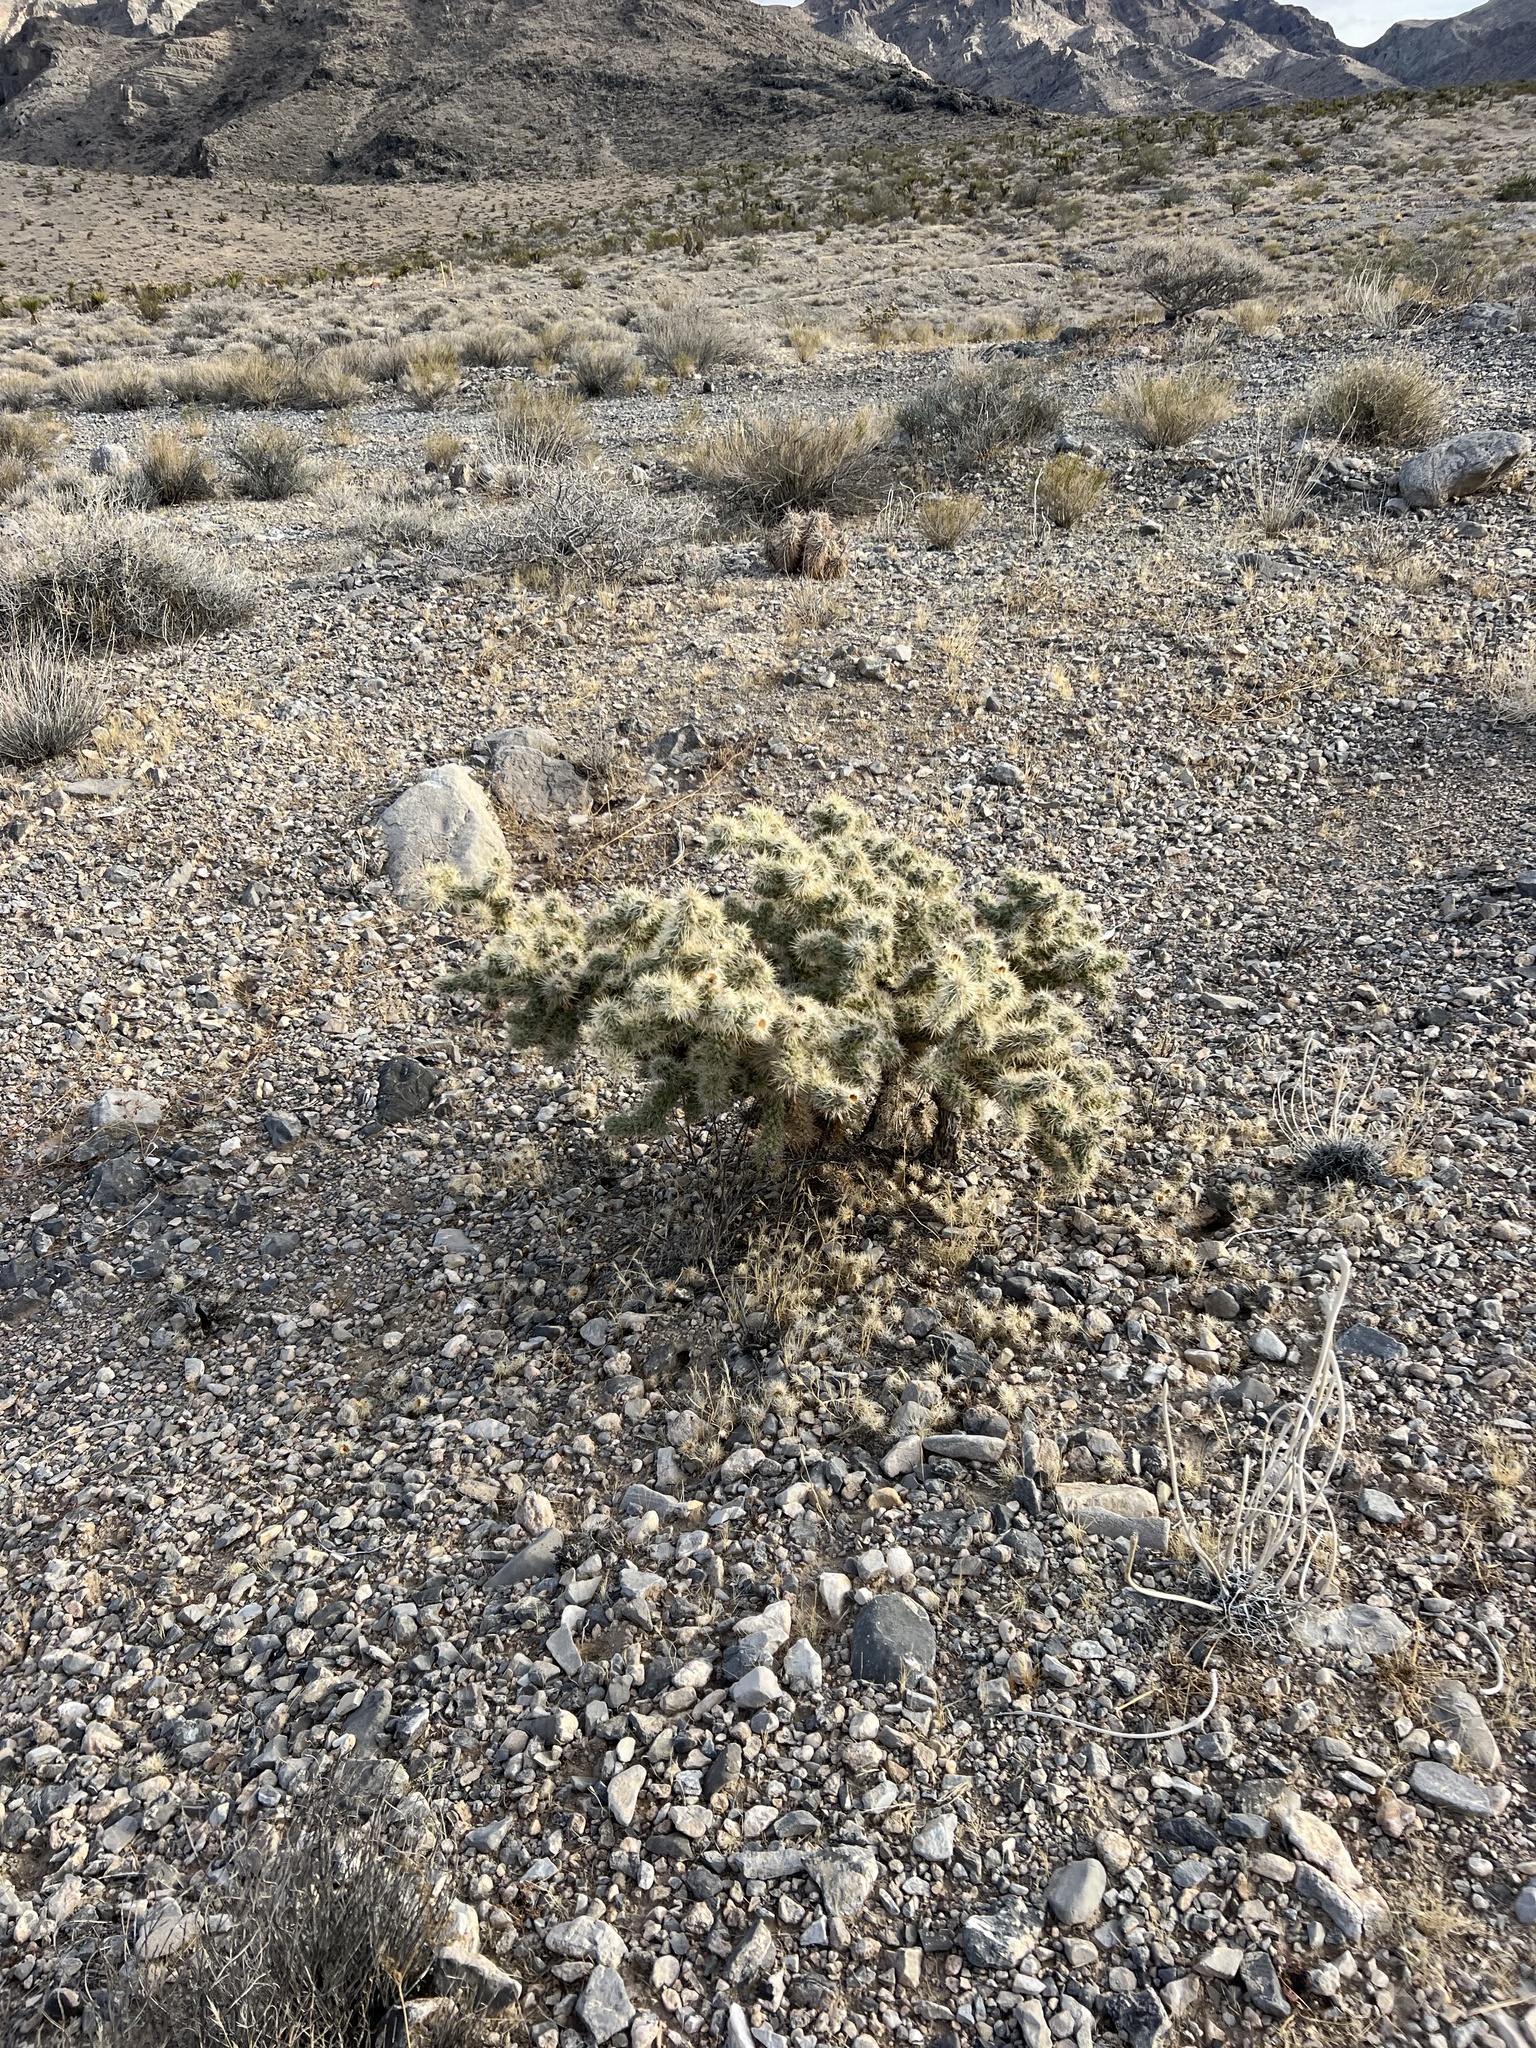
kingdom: Plantae
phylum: Tracheophyta
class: Magnoliopsida
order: Caryophyllales
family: Cactaceae
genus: Cylindropuntia
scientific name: Cylindropuntia echinocarpa
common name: Ground cholla
